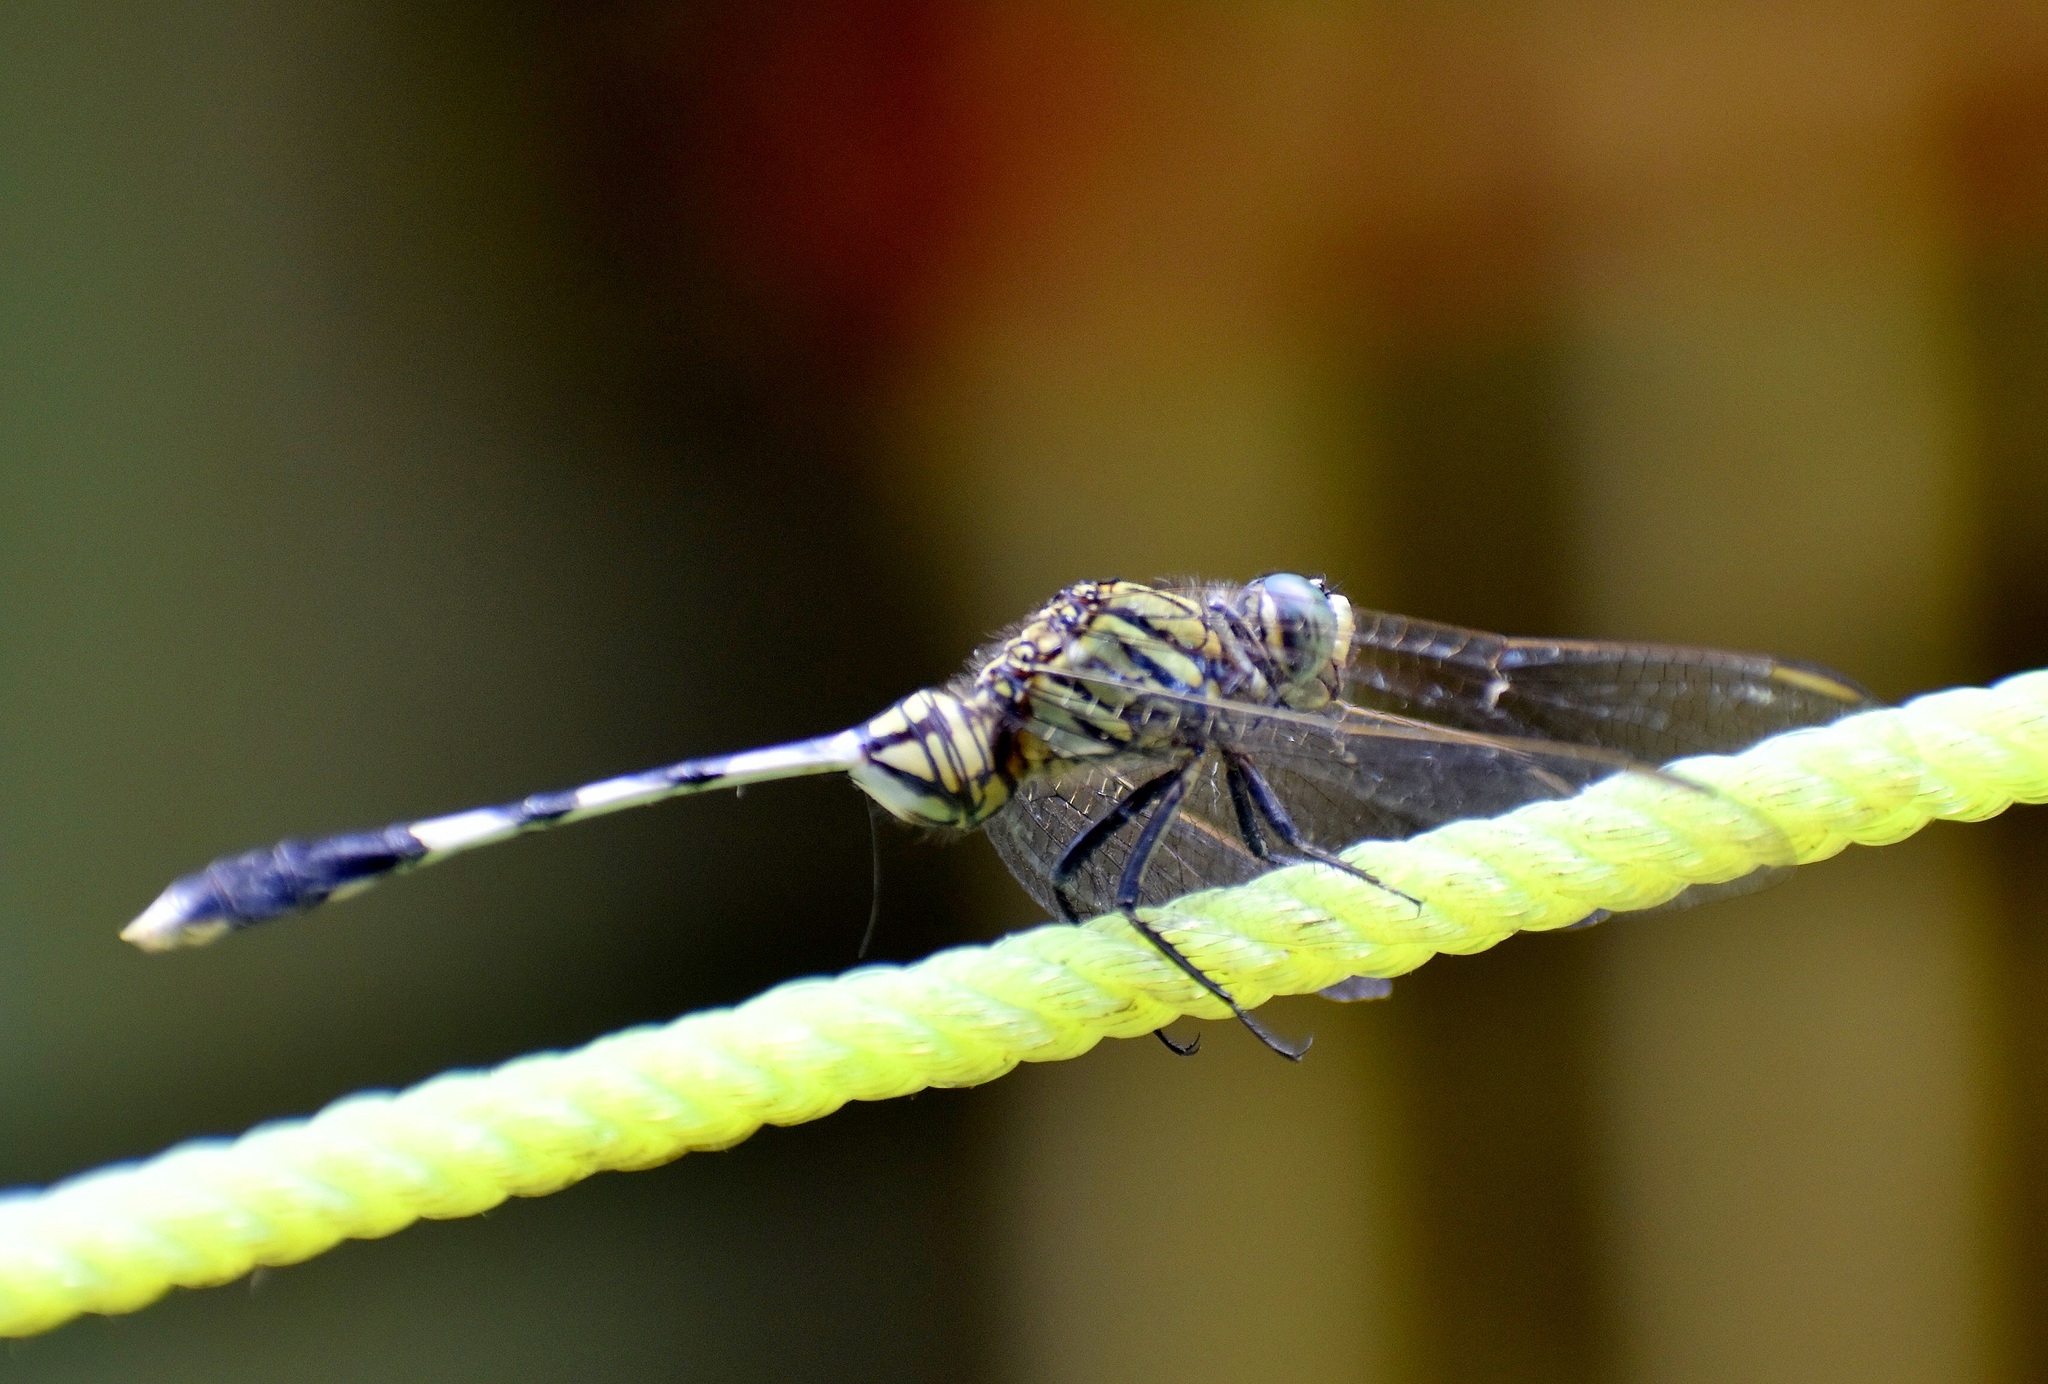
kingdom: Animalia
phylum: Arthropoda
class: Insecta
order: Odonata
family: Libellulidae
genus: Orthetrum
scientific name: Orthetrum sabina
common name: Slender skimmer
